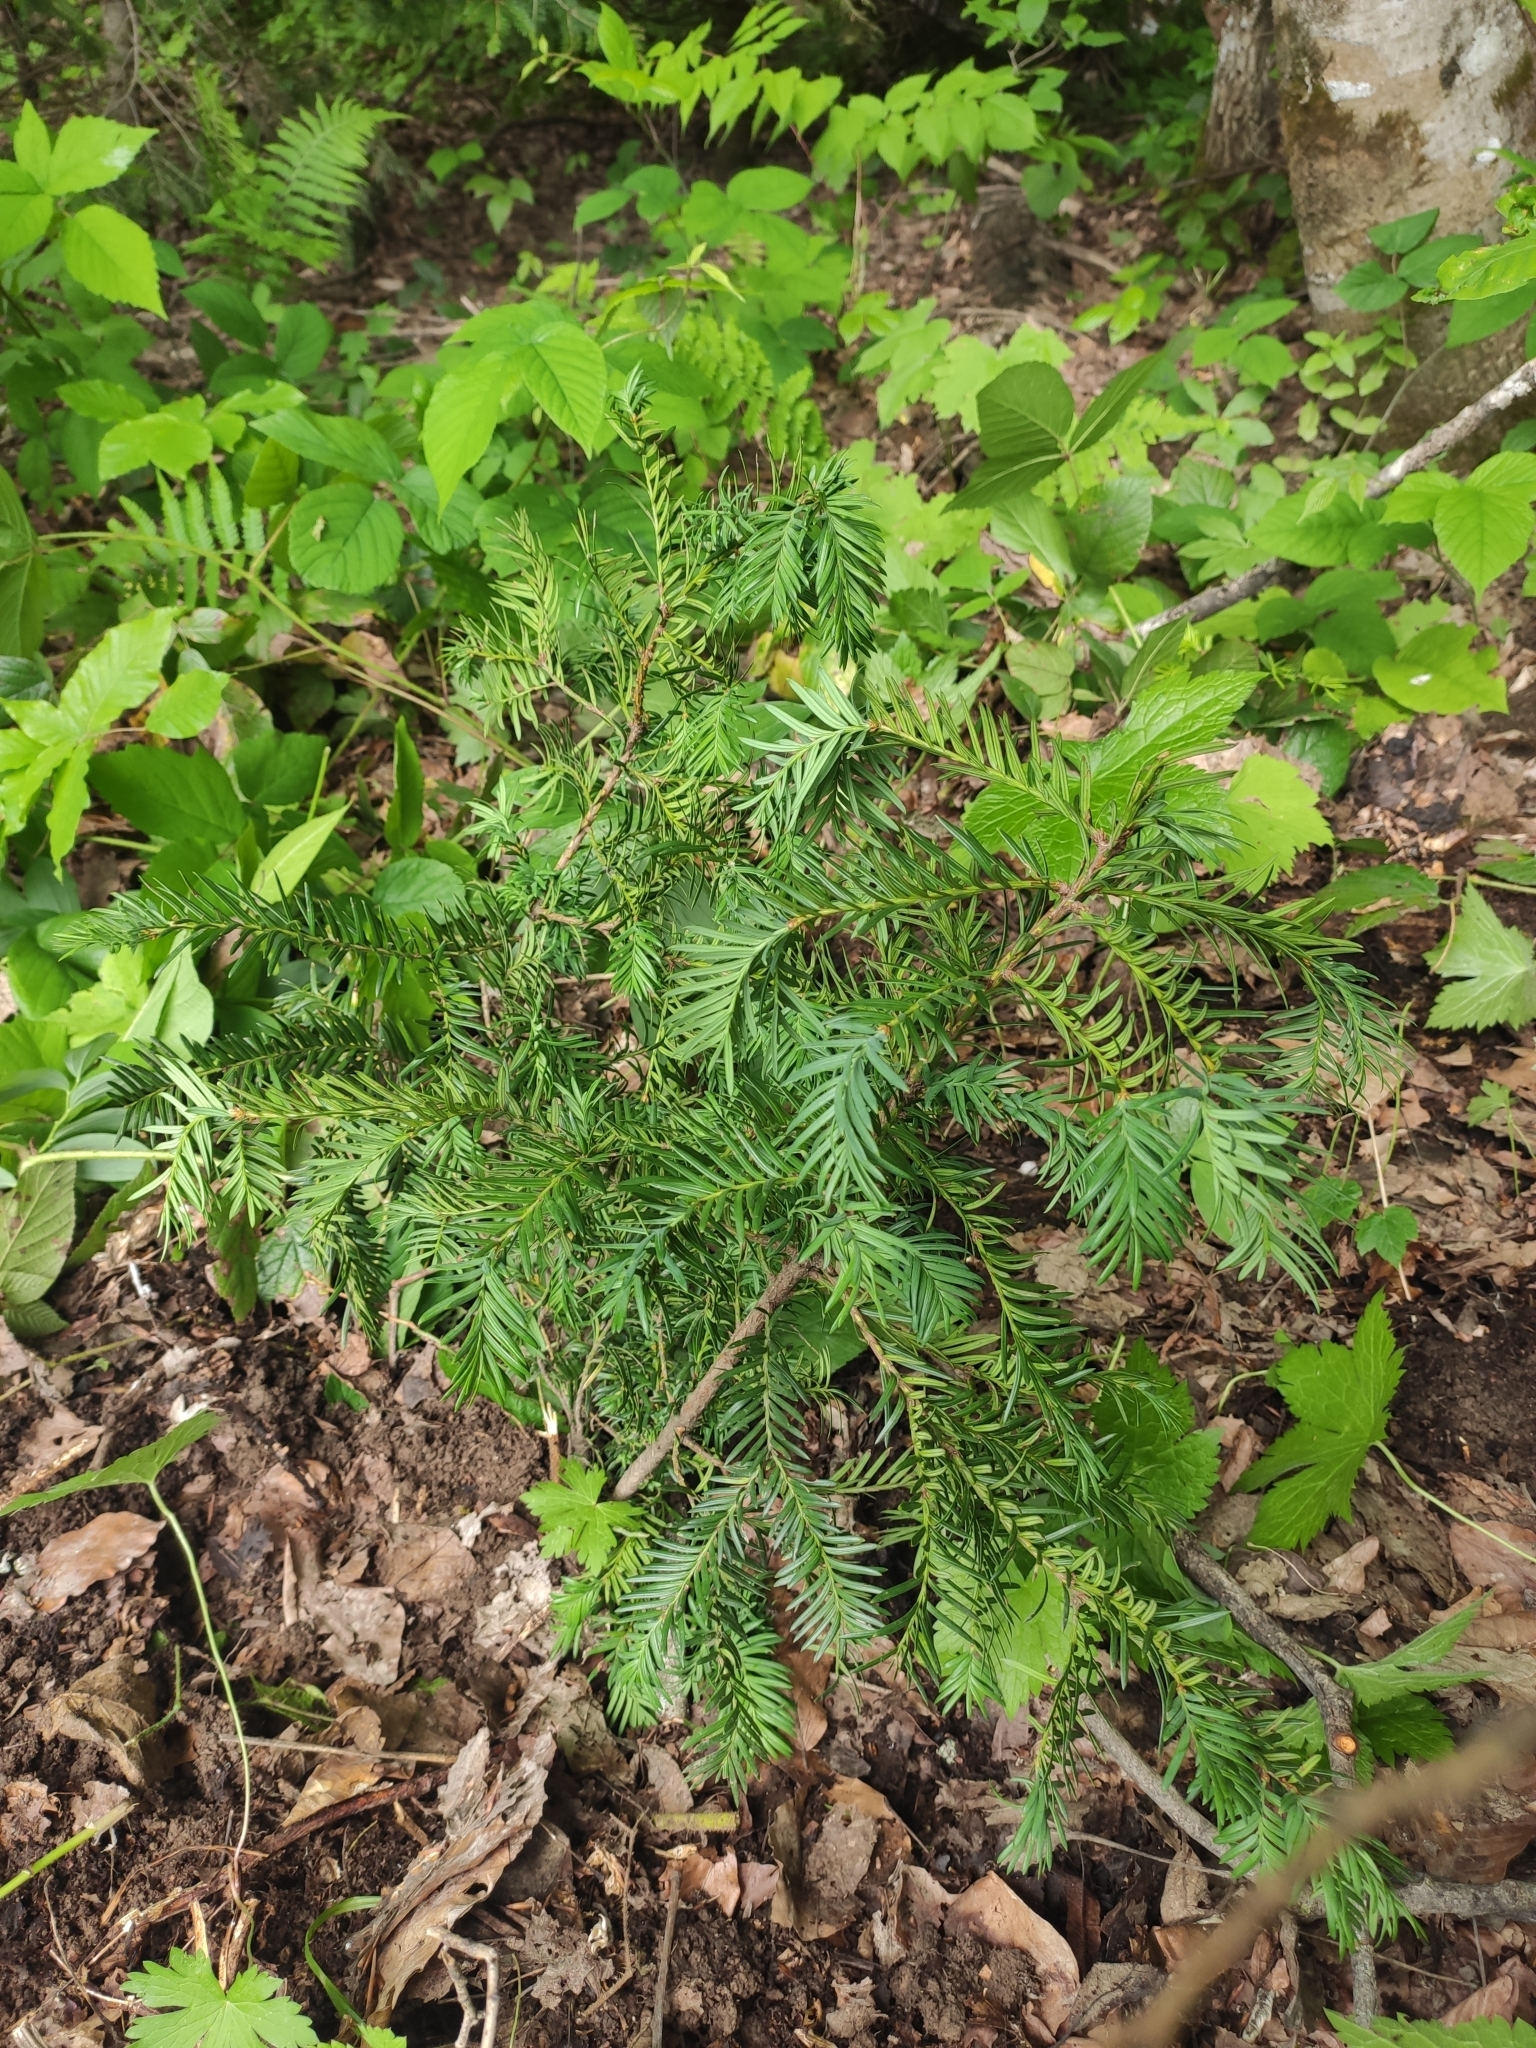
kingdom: Plantae
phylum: Tracheophyta
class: Pinopsida
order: Pinales
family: Taxaceae
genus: Taxus
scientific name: Taxus baccata
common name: Yew
